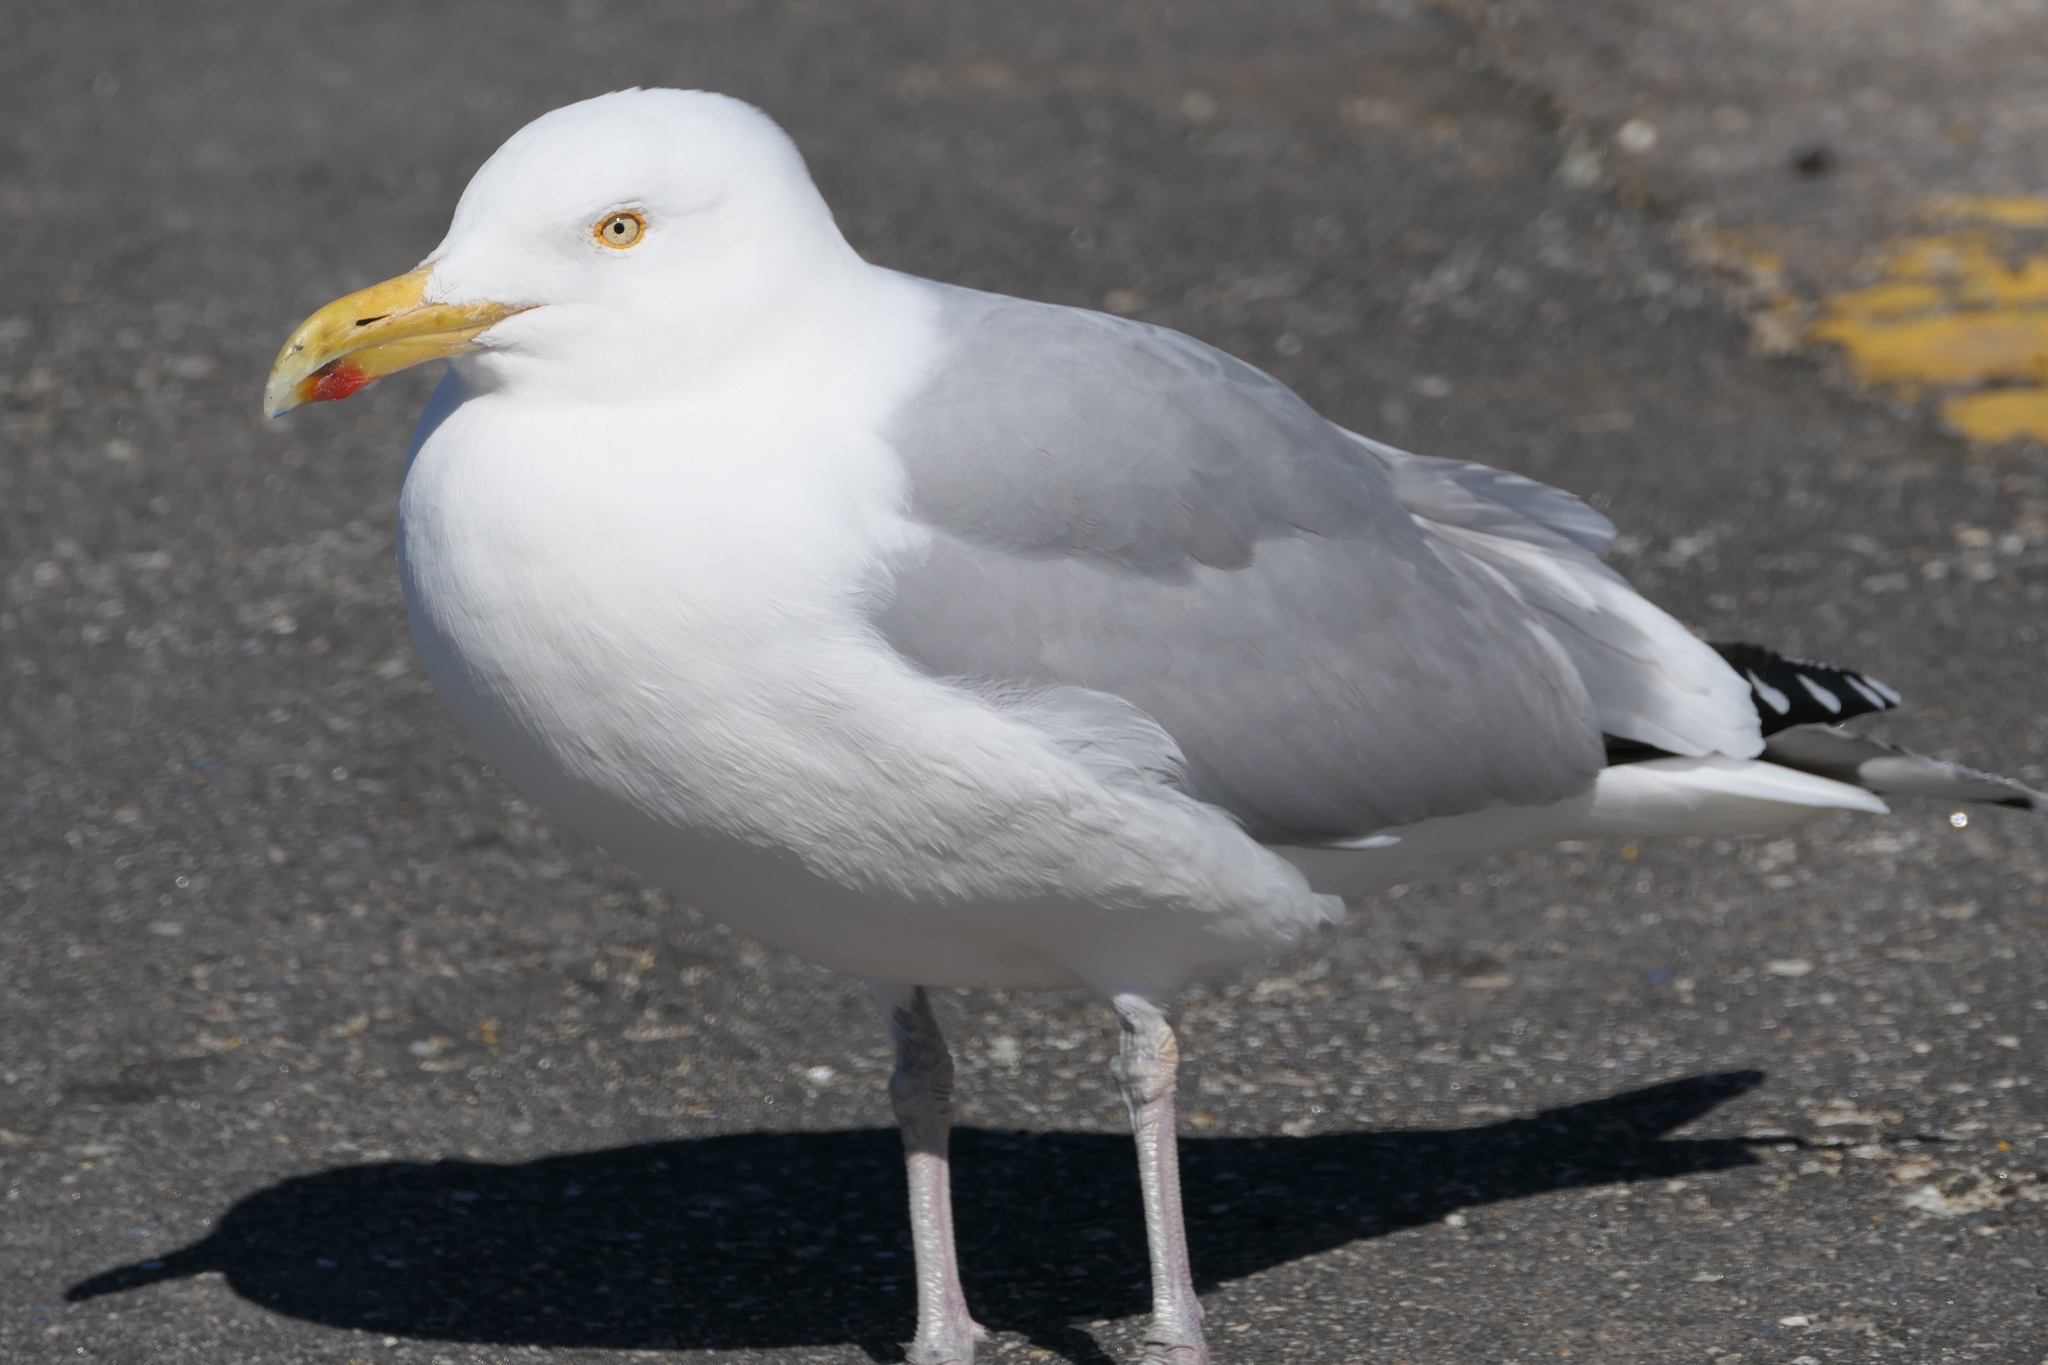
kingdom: Animalia
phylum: Chordata
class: Aves
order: Charadriiformes
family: Laridae
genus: Larus
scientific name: Larus argentatus
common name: Herring gull
